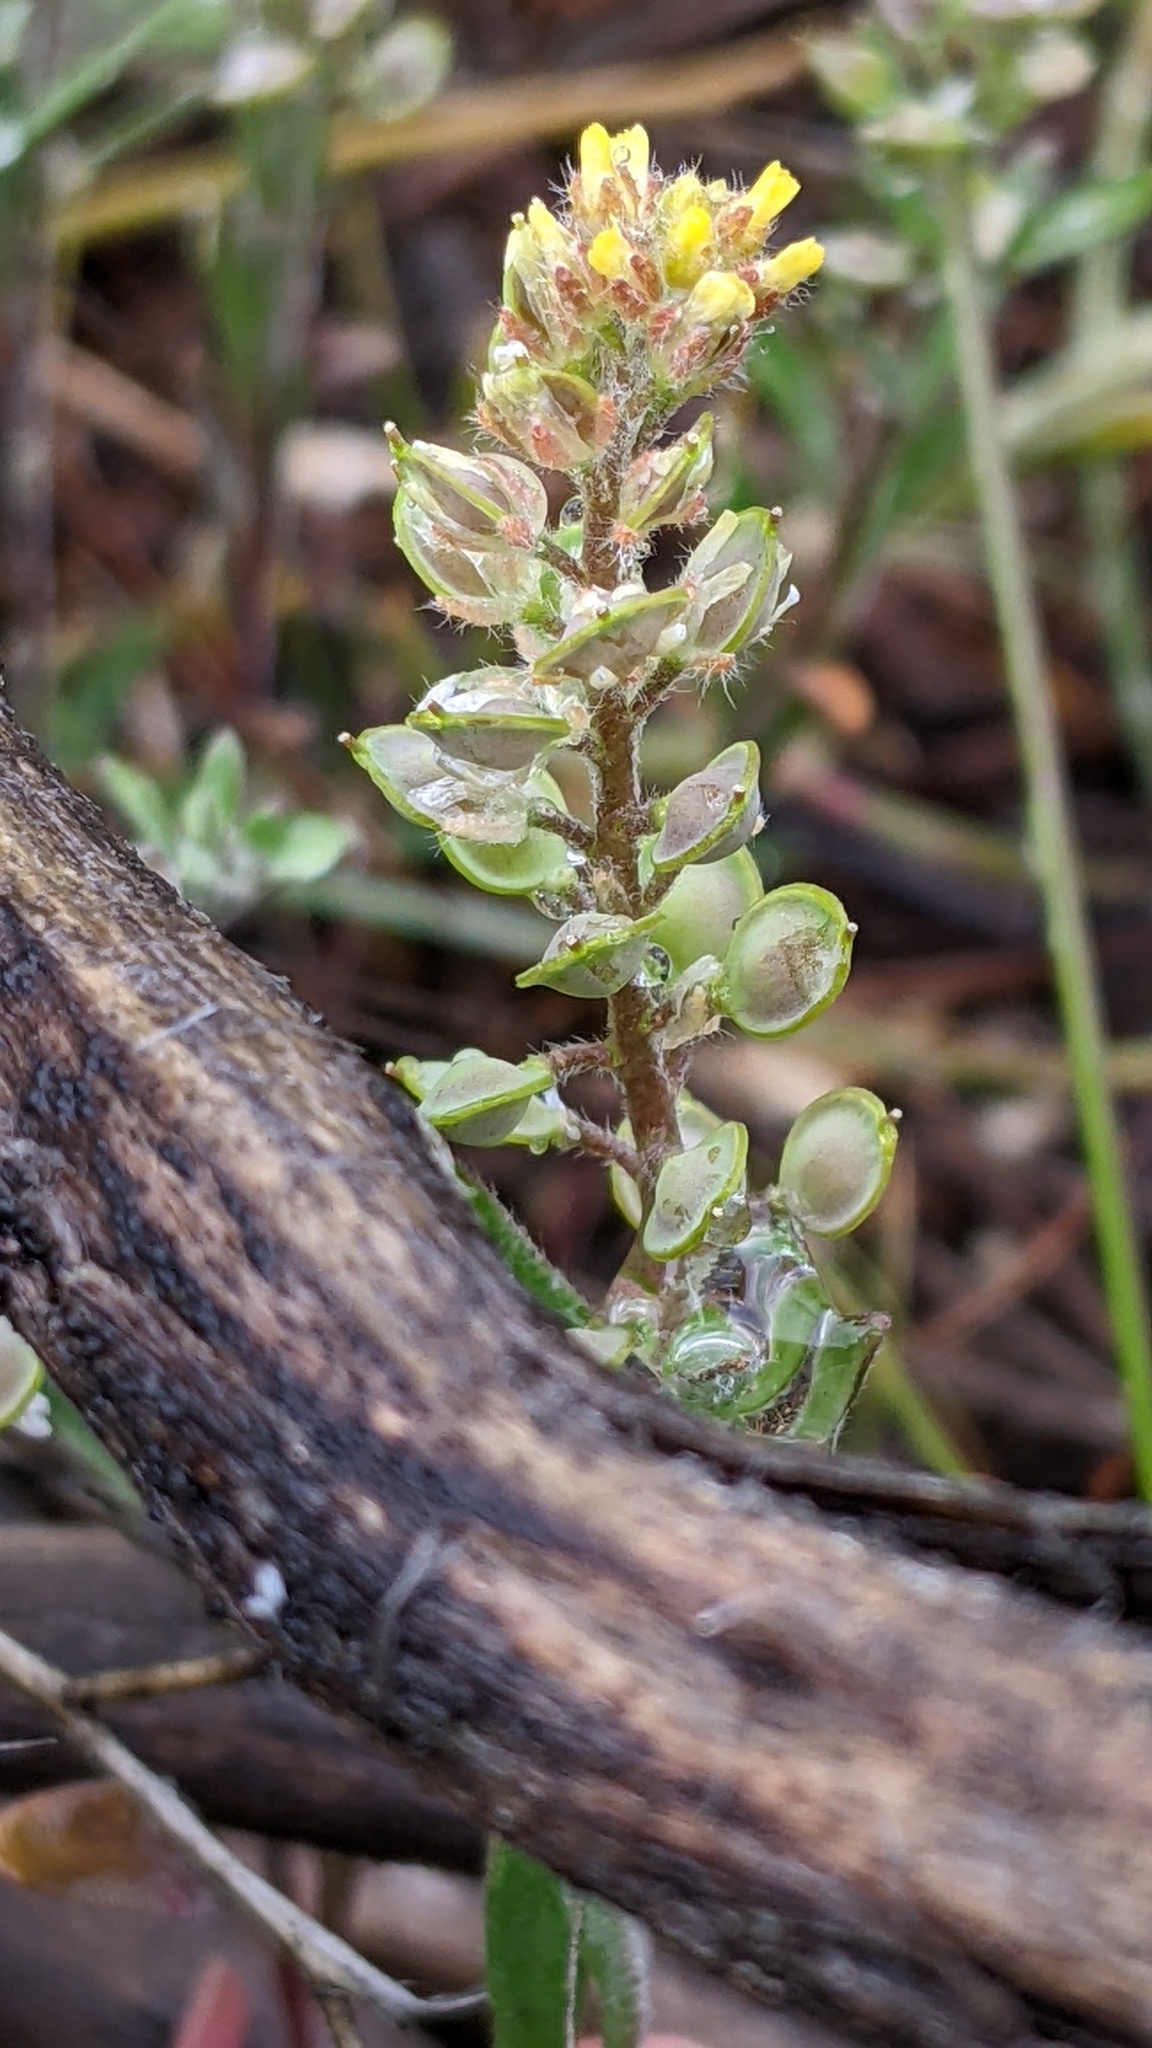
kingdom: Plantae
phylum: Tracheophyta
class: Magnoliopsida
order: Brassicales
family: Brassicaceae
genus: Alyssum
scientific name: Alyssum turkestanicum
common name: Desert alyssum
